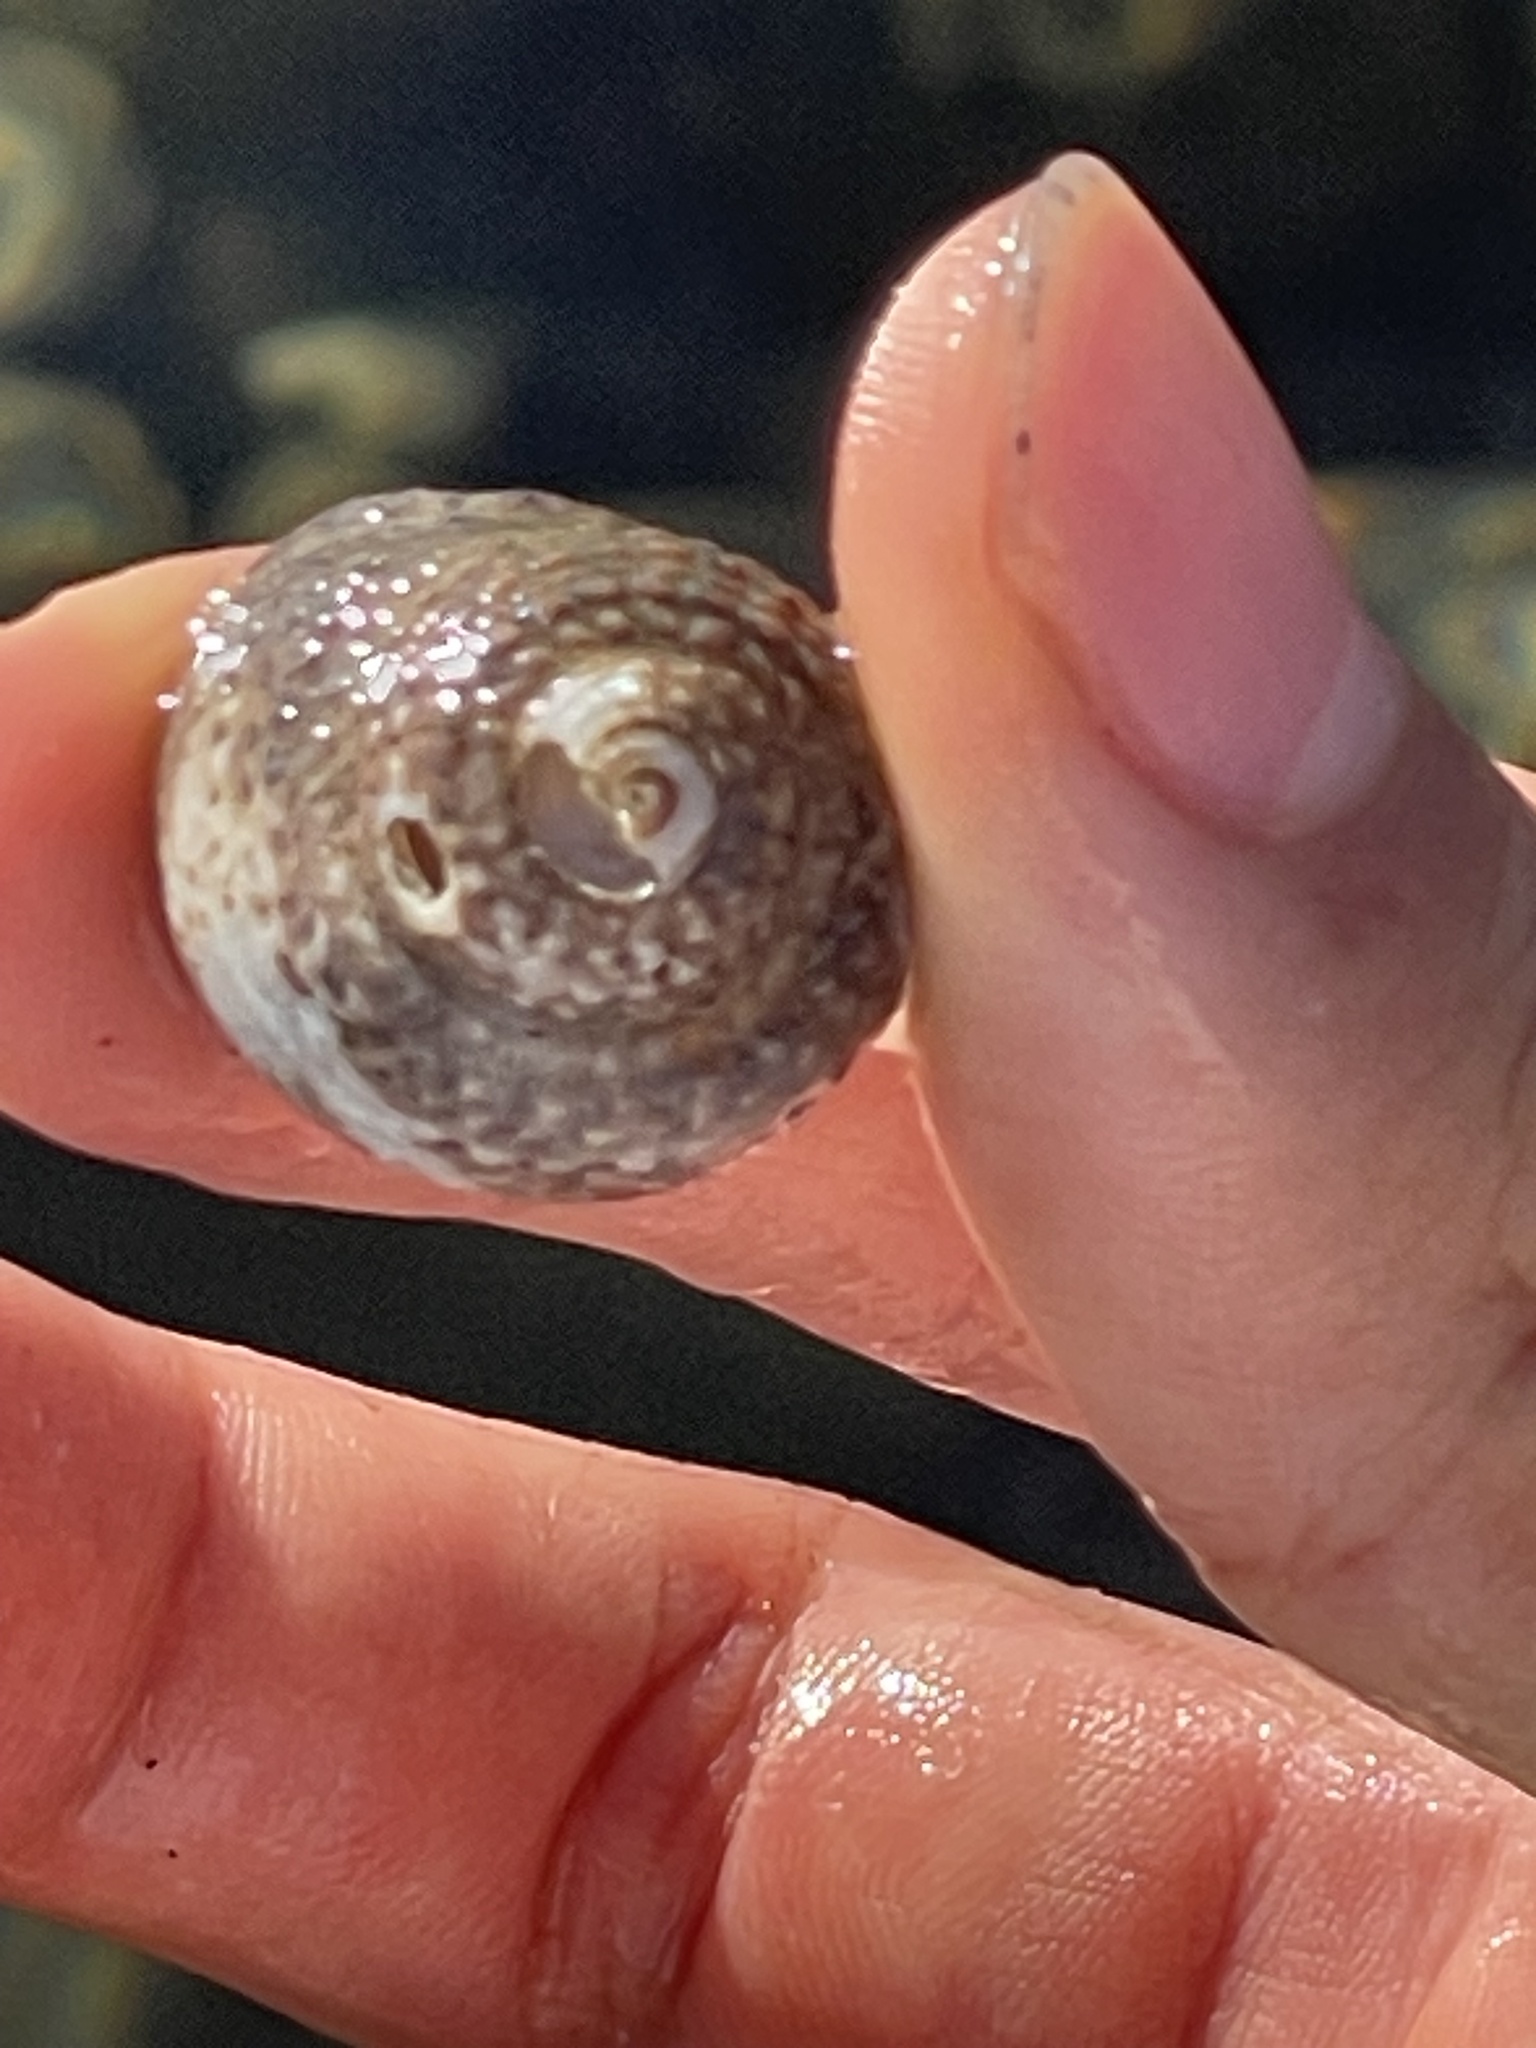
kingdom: Animalia
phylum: Mollusca
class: Gastropoda
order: Trochida
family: Tegulidae
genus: Tegula
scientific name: Tegula eiseni
